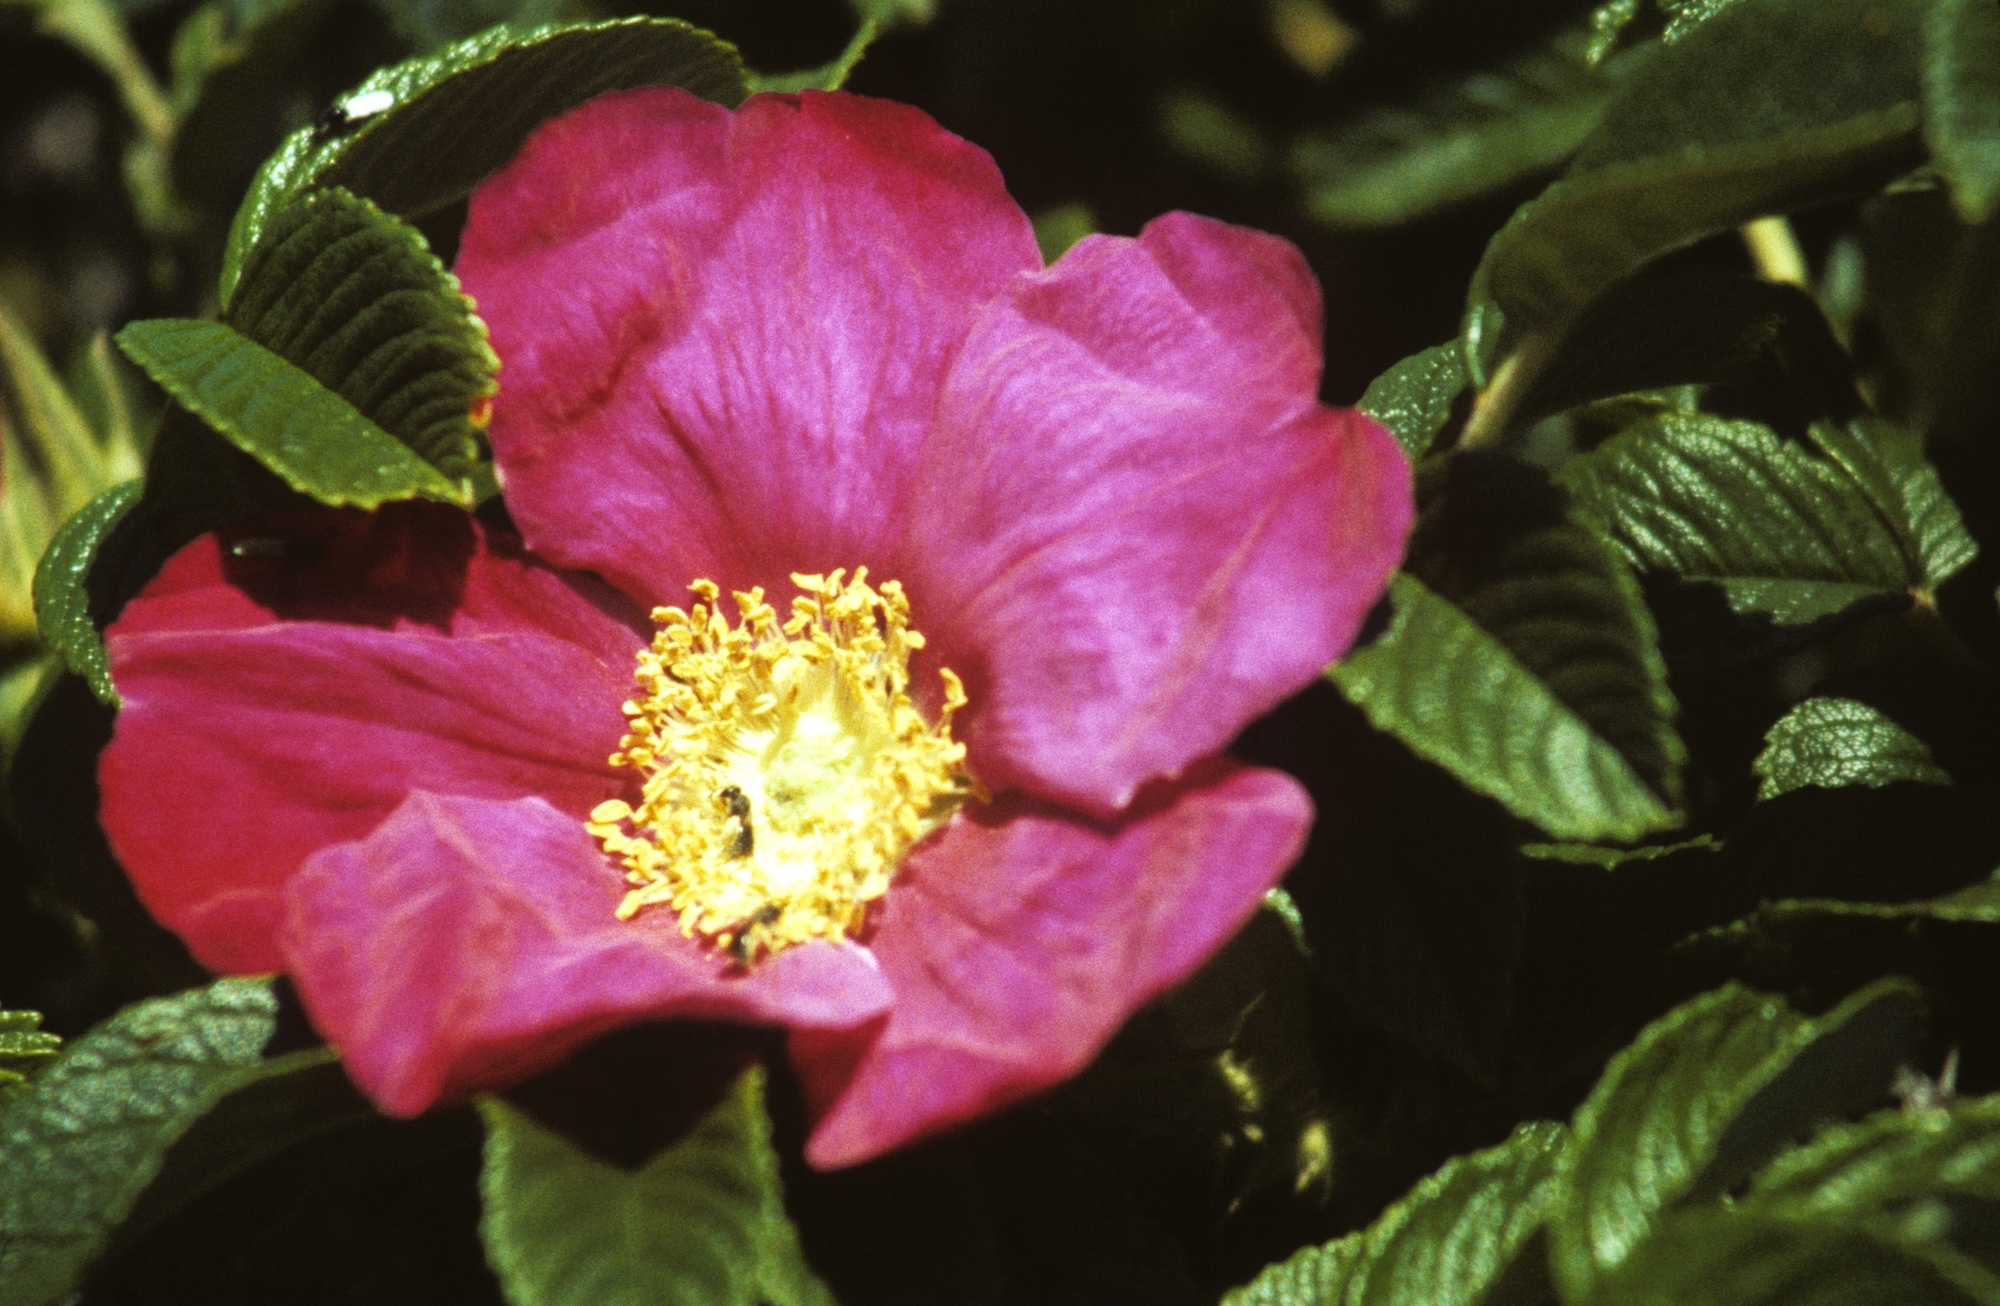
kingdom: Plantae
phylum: Tracheophyta
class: Magnoliopsida
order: Rosales
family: Rosaceae
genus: Rosa
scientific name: Rosa rugosa
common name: Japanese rose
